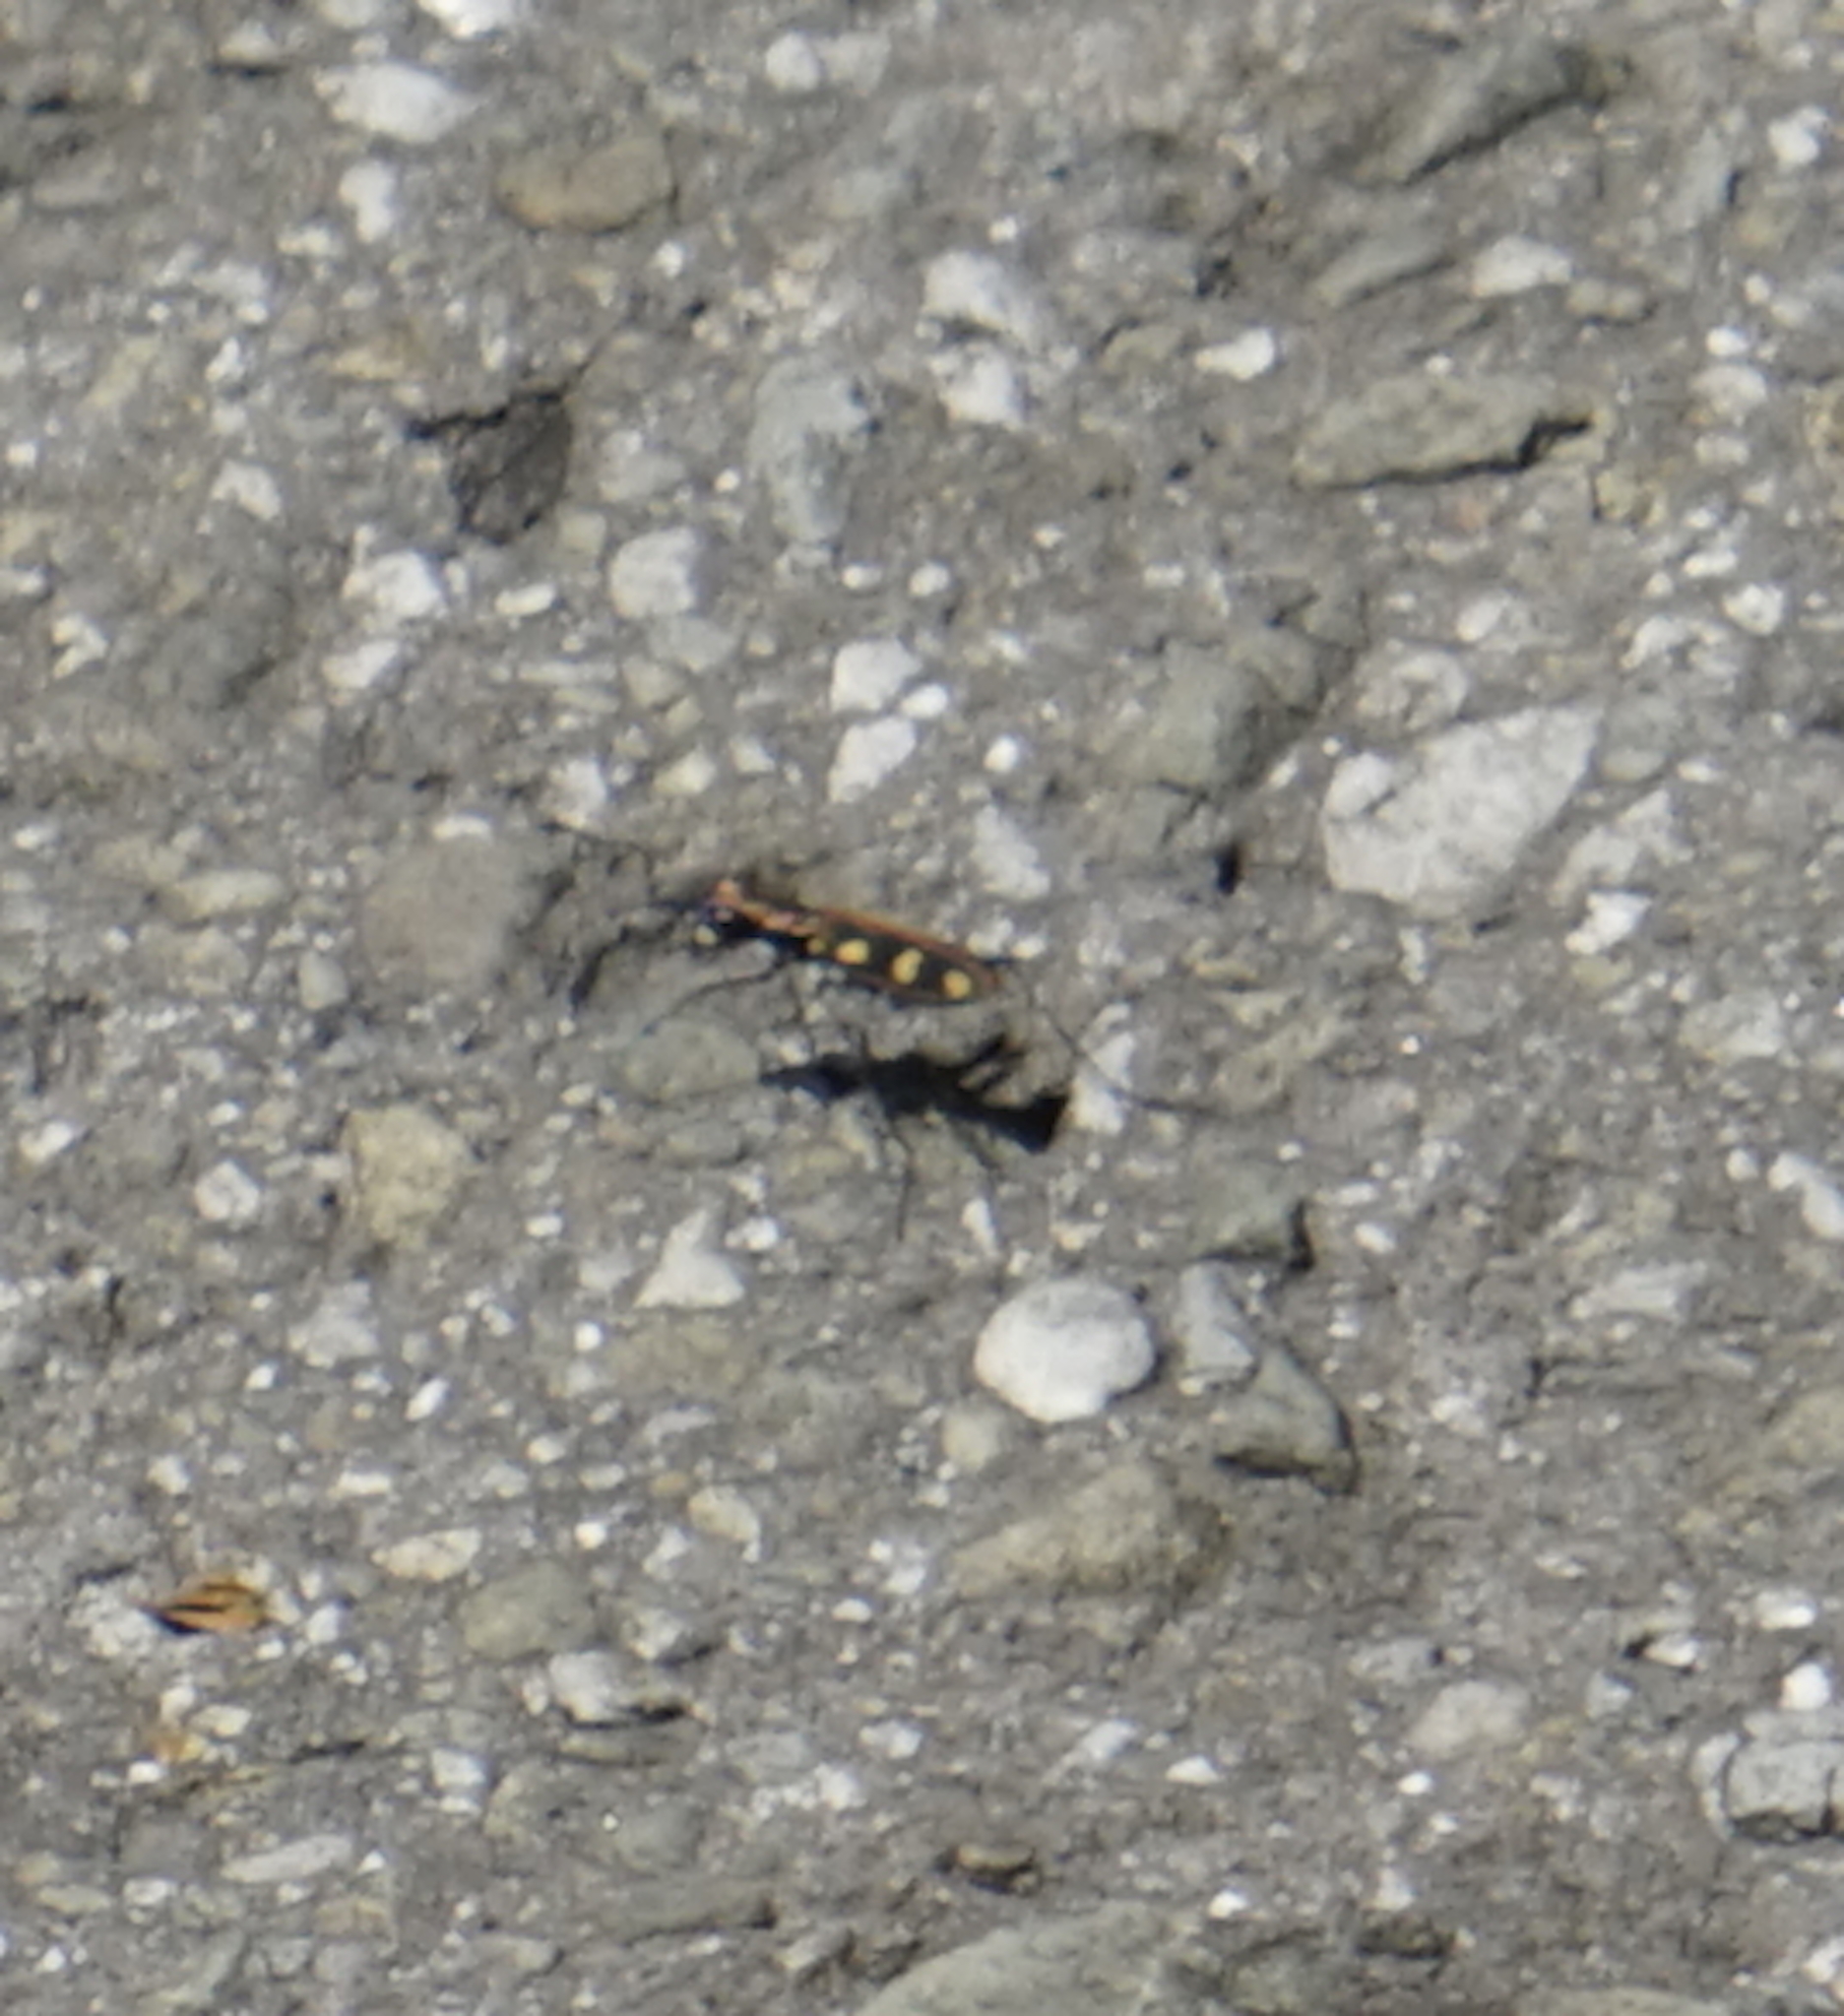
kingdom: Animalia
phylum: Arthropoda
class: Insecta
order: Coleoptera
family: Carabidae
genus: Cicindela
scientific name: Cicindela aurulenta
